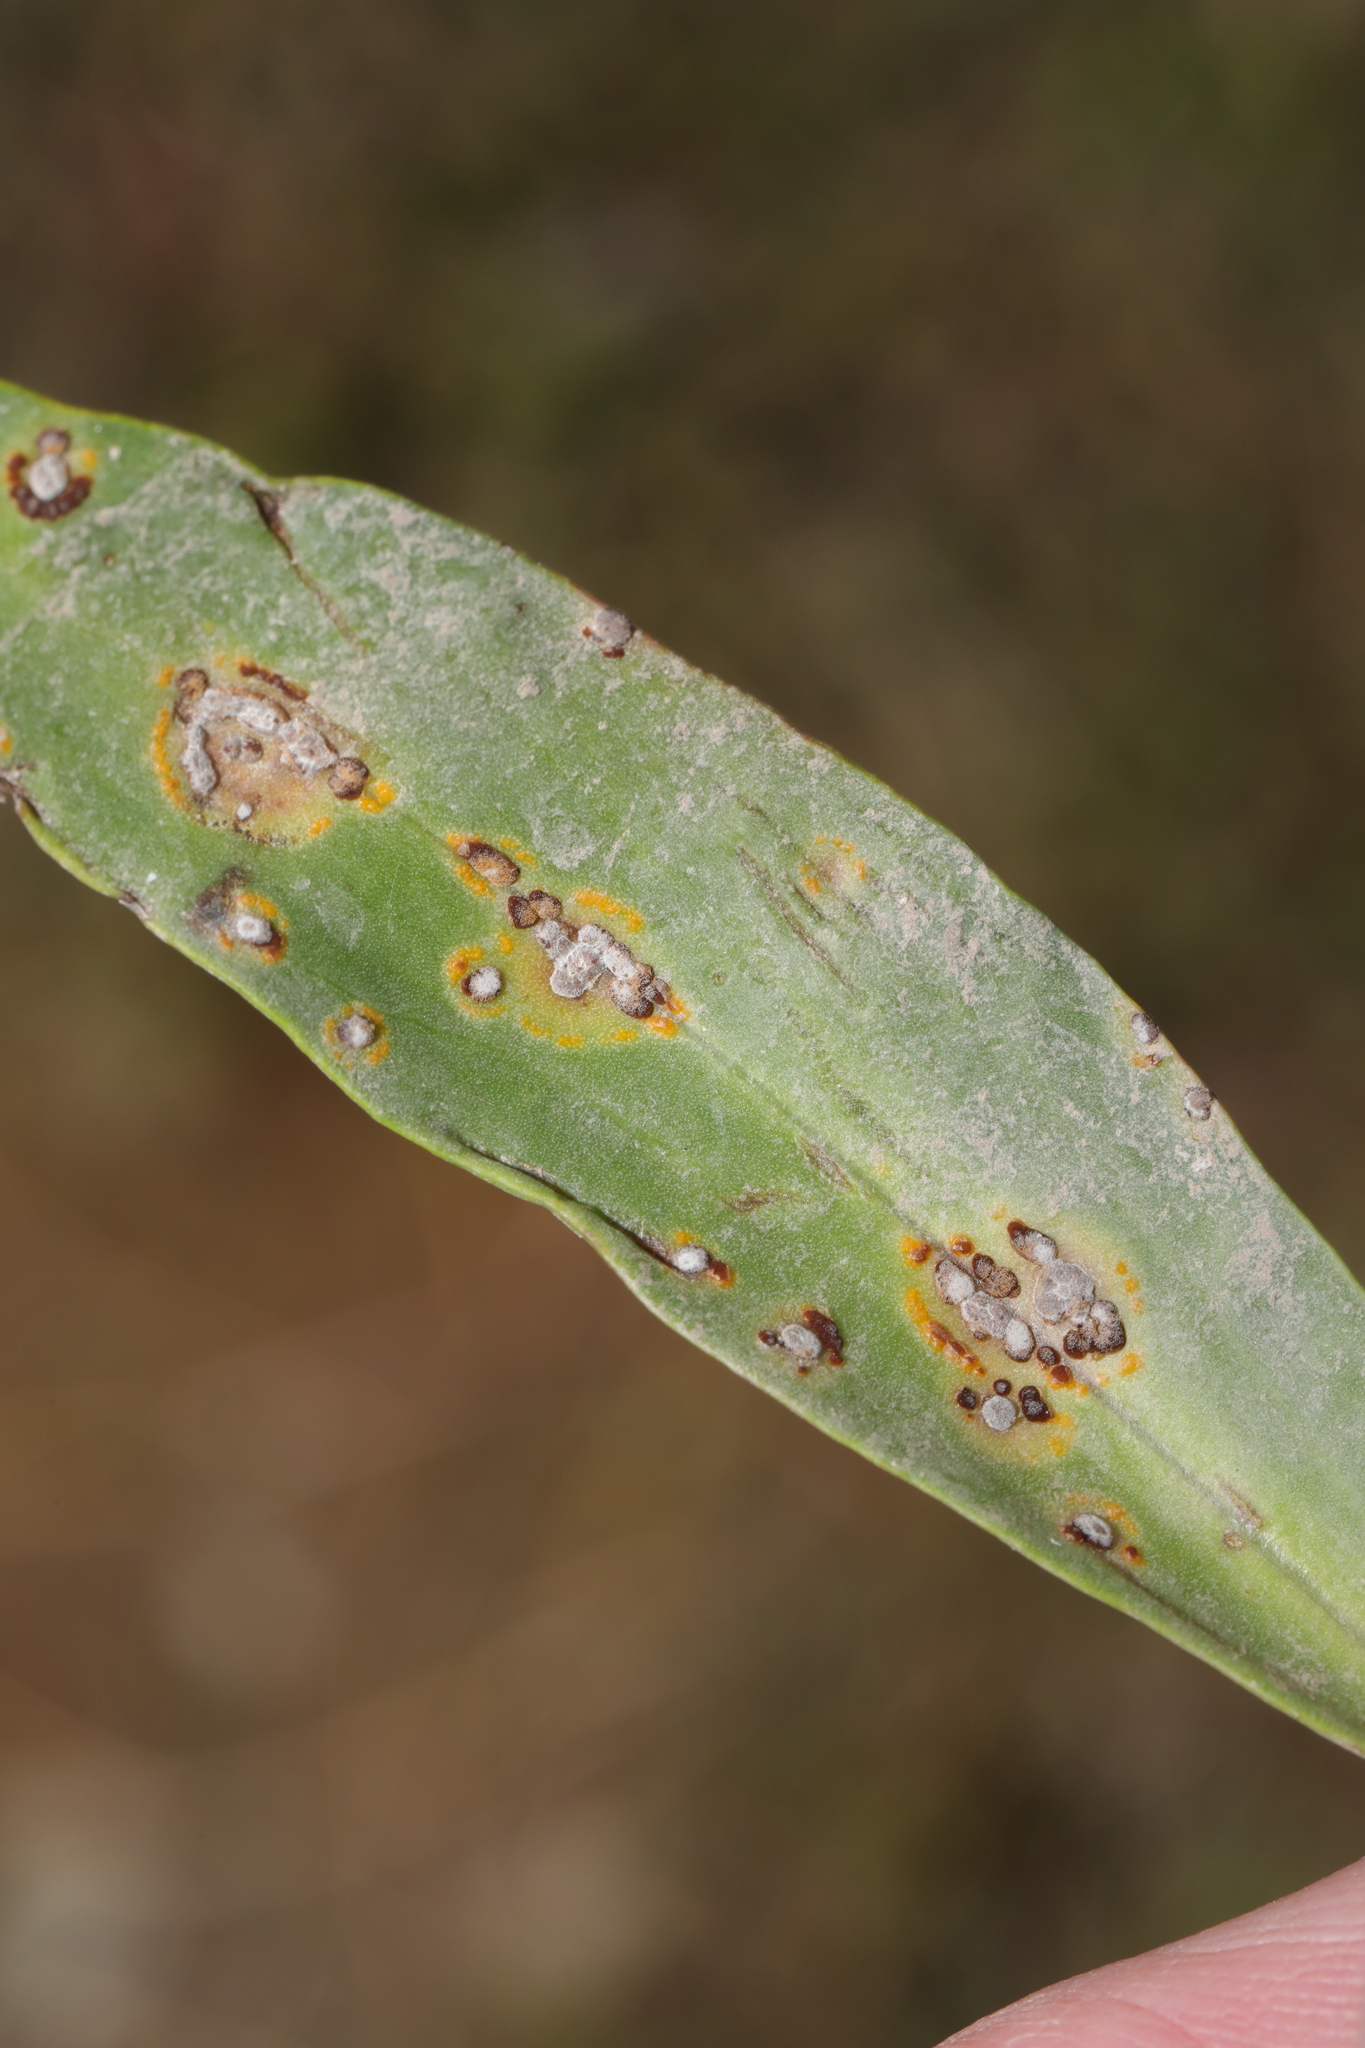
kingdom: Fungi
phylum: Basidiomycota
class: Pucciniomycetes
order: Pucciniales
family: Pucciniaceae
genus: Puccinia
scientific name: Puccinia cnici-oleracei
